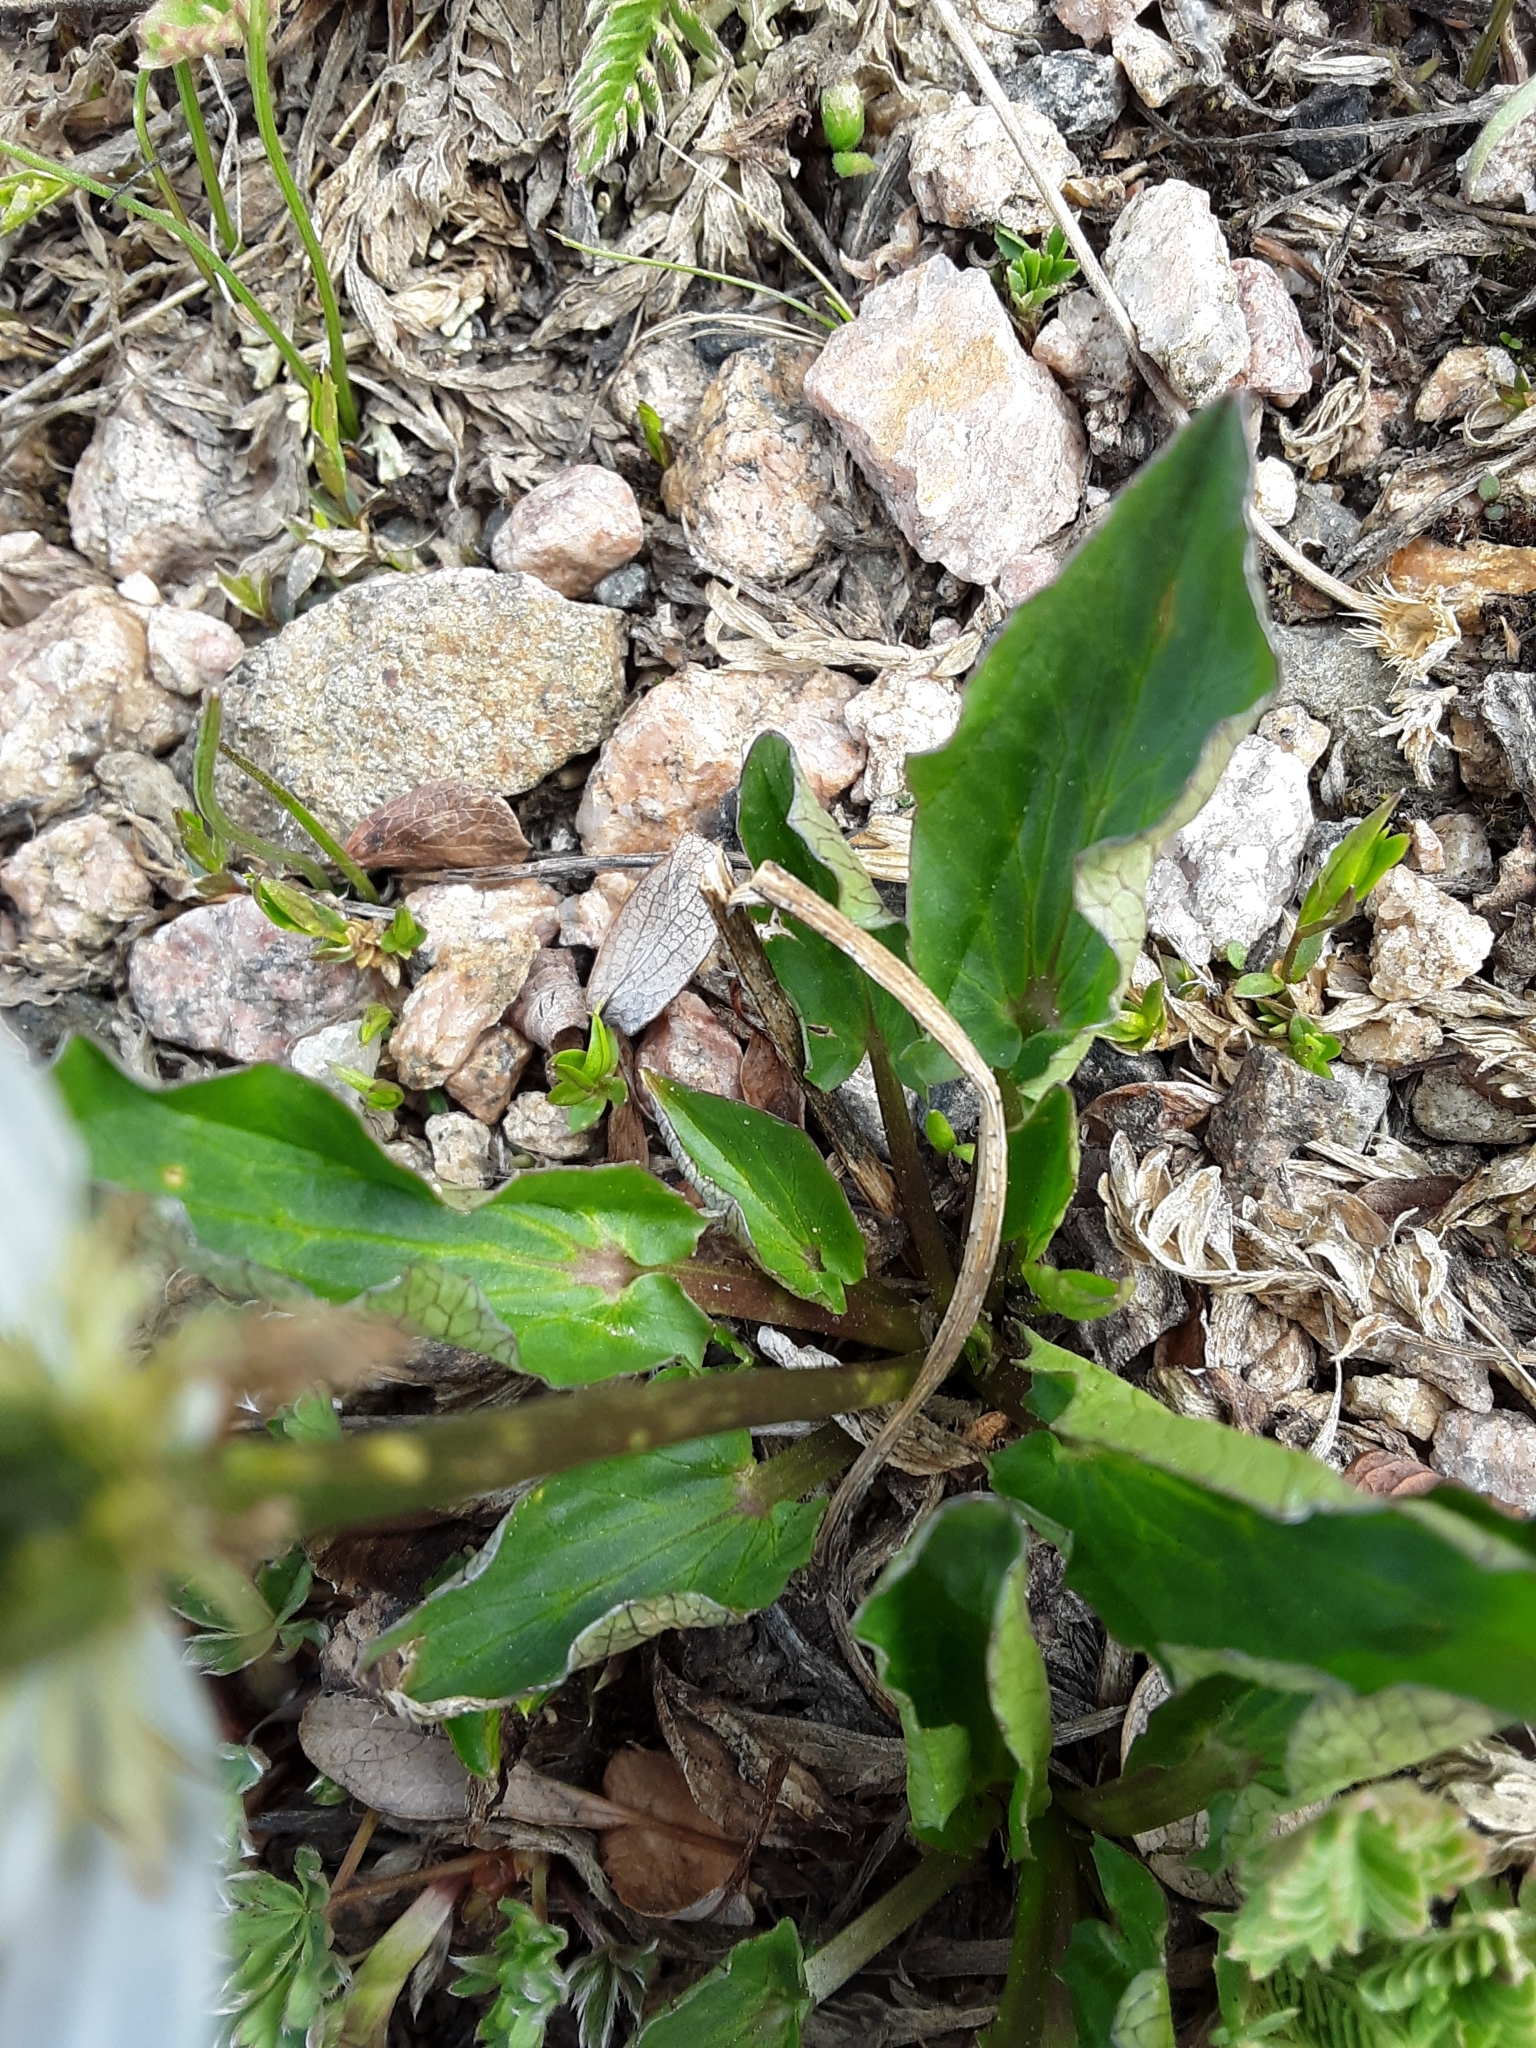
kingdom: Plantae
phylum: Tracheophyta
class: Magnoliopsida
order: Ranunculales
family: Ranunculaceae
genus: Caltha
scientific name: Caltha leptosepala
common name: Elkslip
